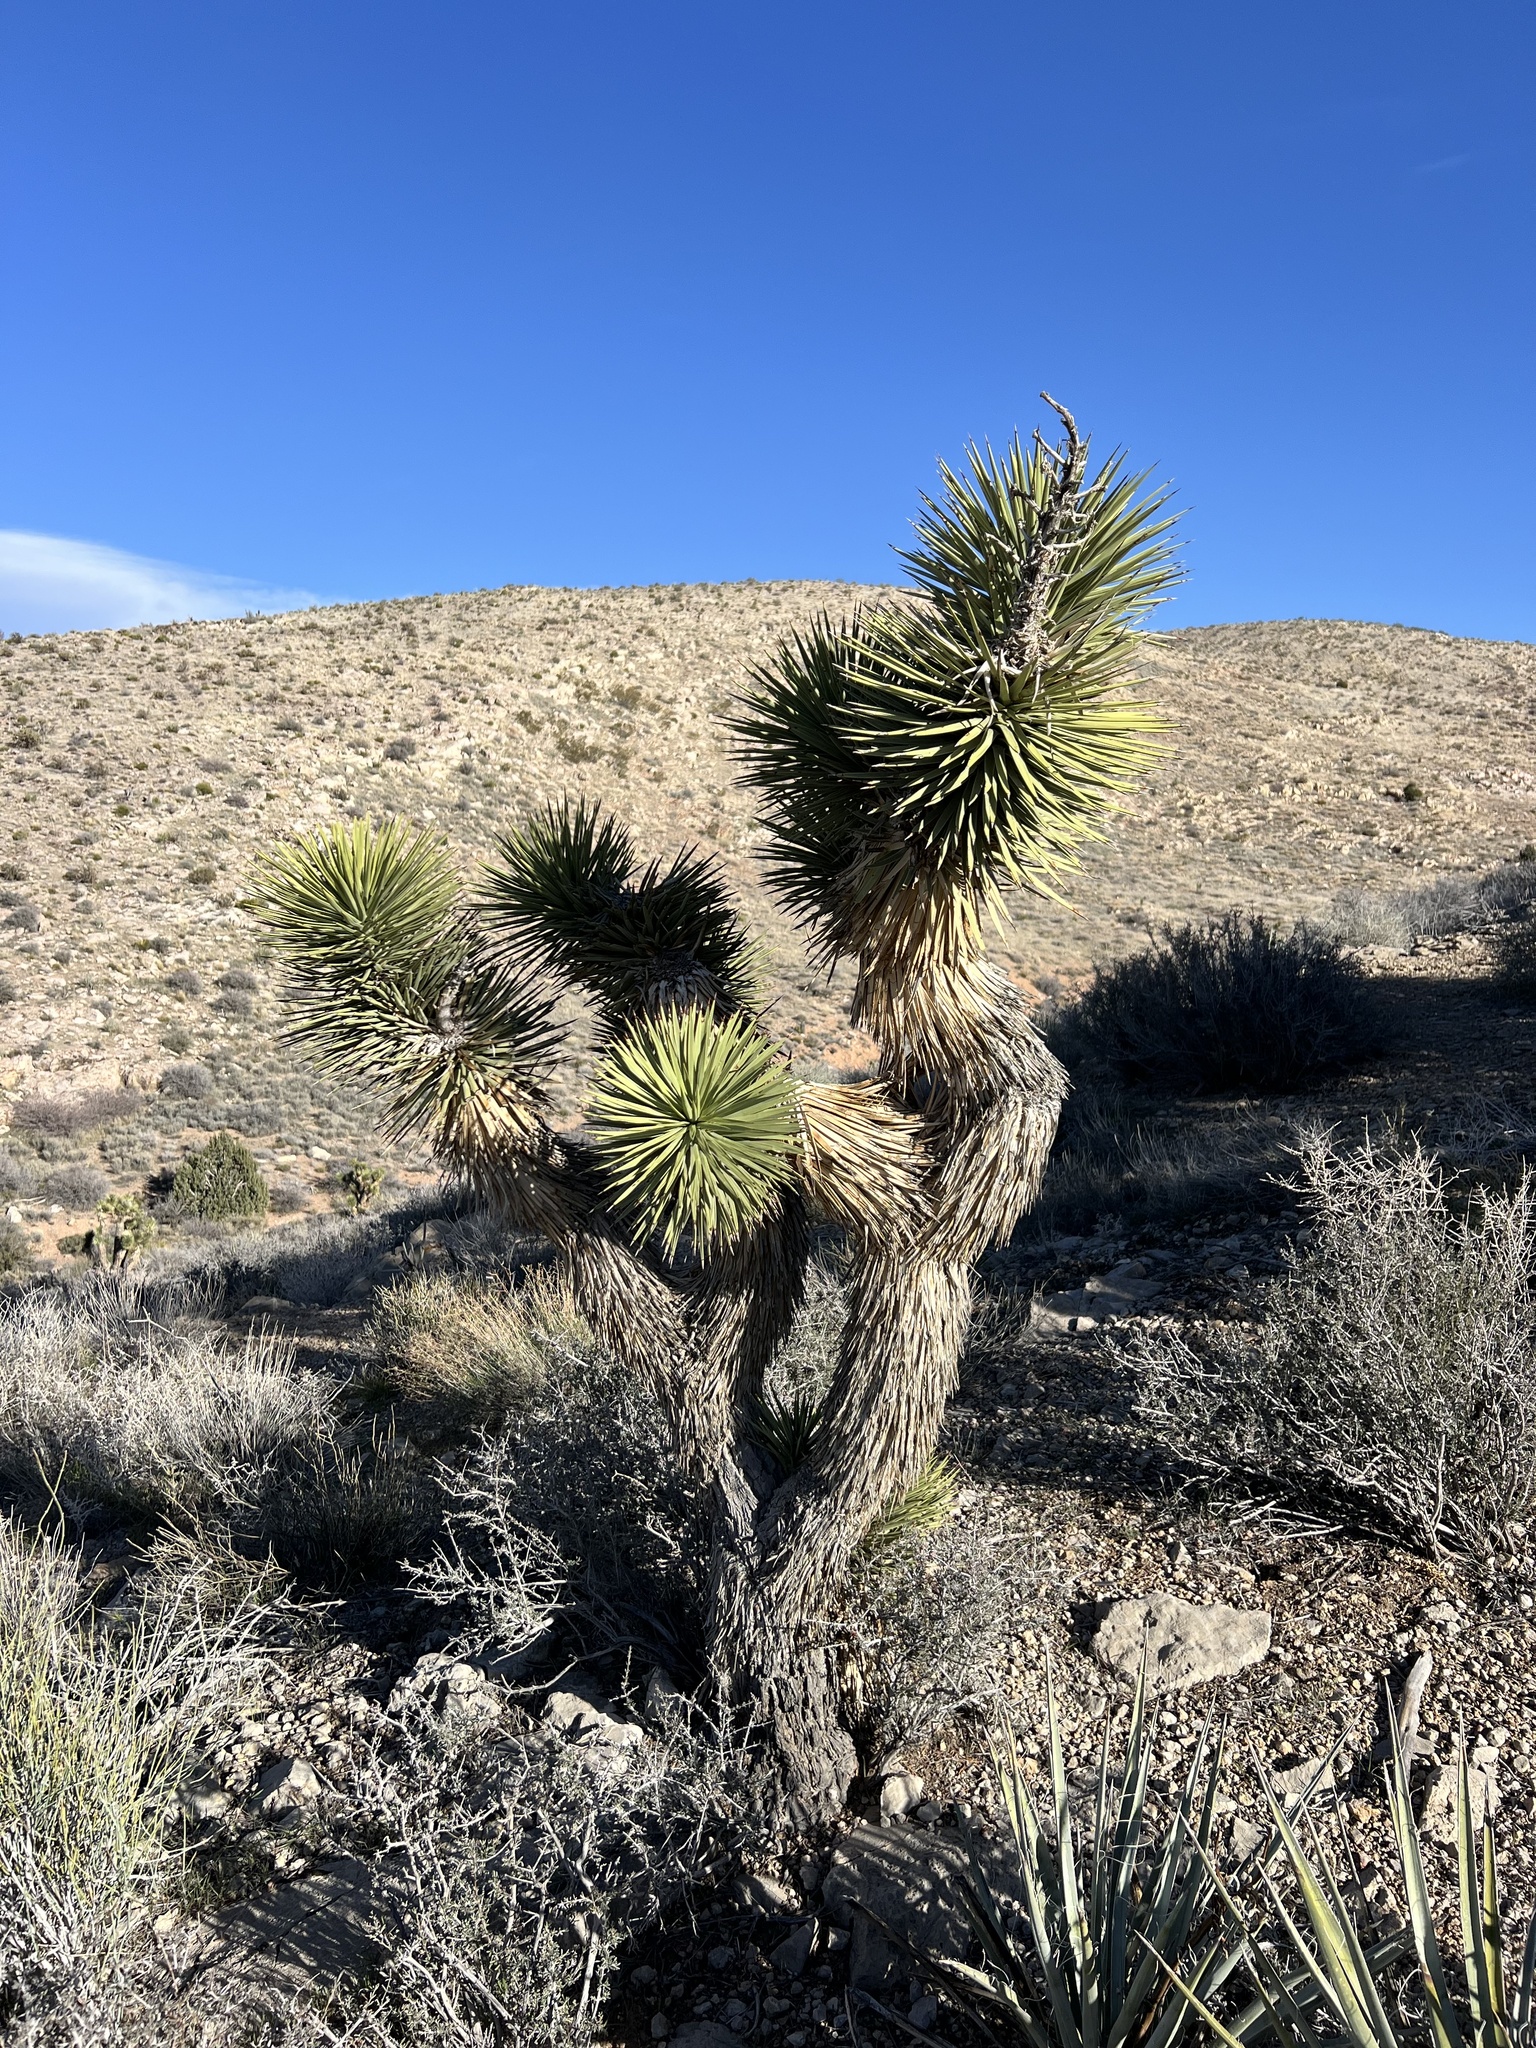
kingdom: Plantae
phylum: Tracheophyta
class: Liliopsida
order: Asparagales
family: Asparagaceae
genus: Yucca
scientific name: Yucca brevifolia
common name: Joshua tree
